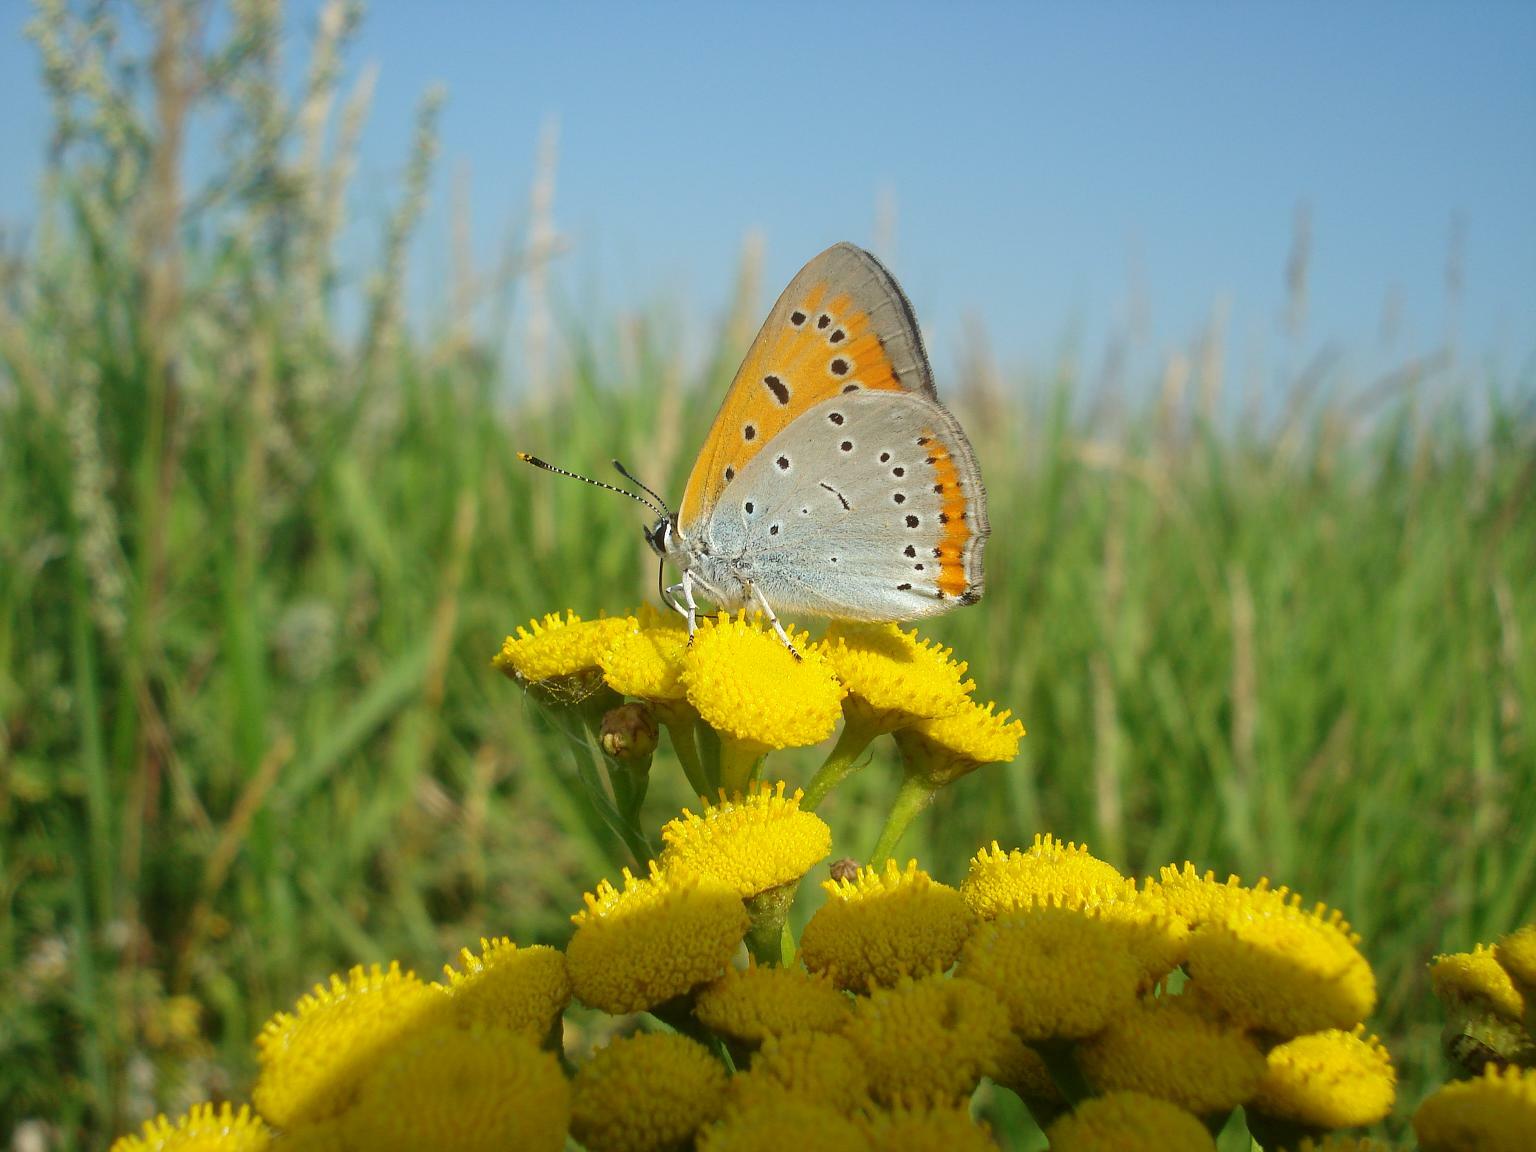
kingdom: Animalia
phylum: Arthropoda
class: Insecta
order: Lepidoptera
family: Lycaenidae
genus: Lycaena
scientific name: Lycaena dispar
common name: Large copper
